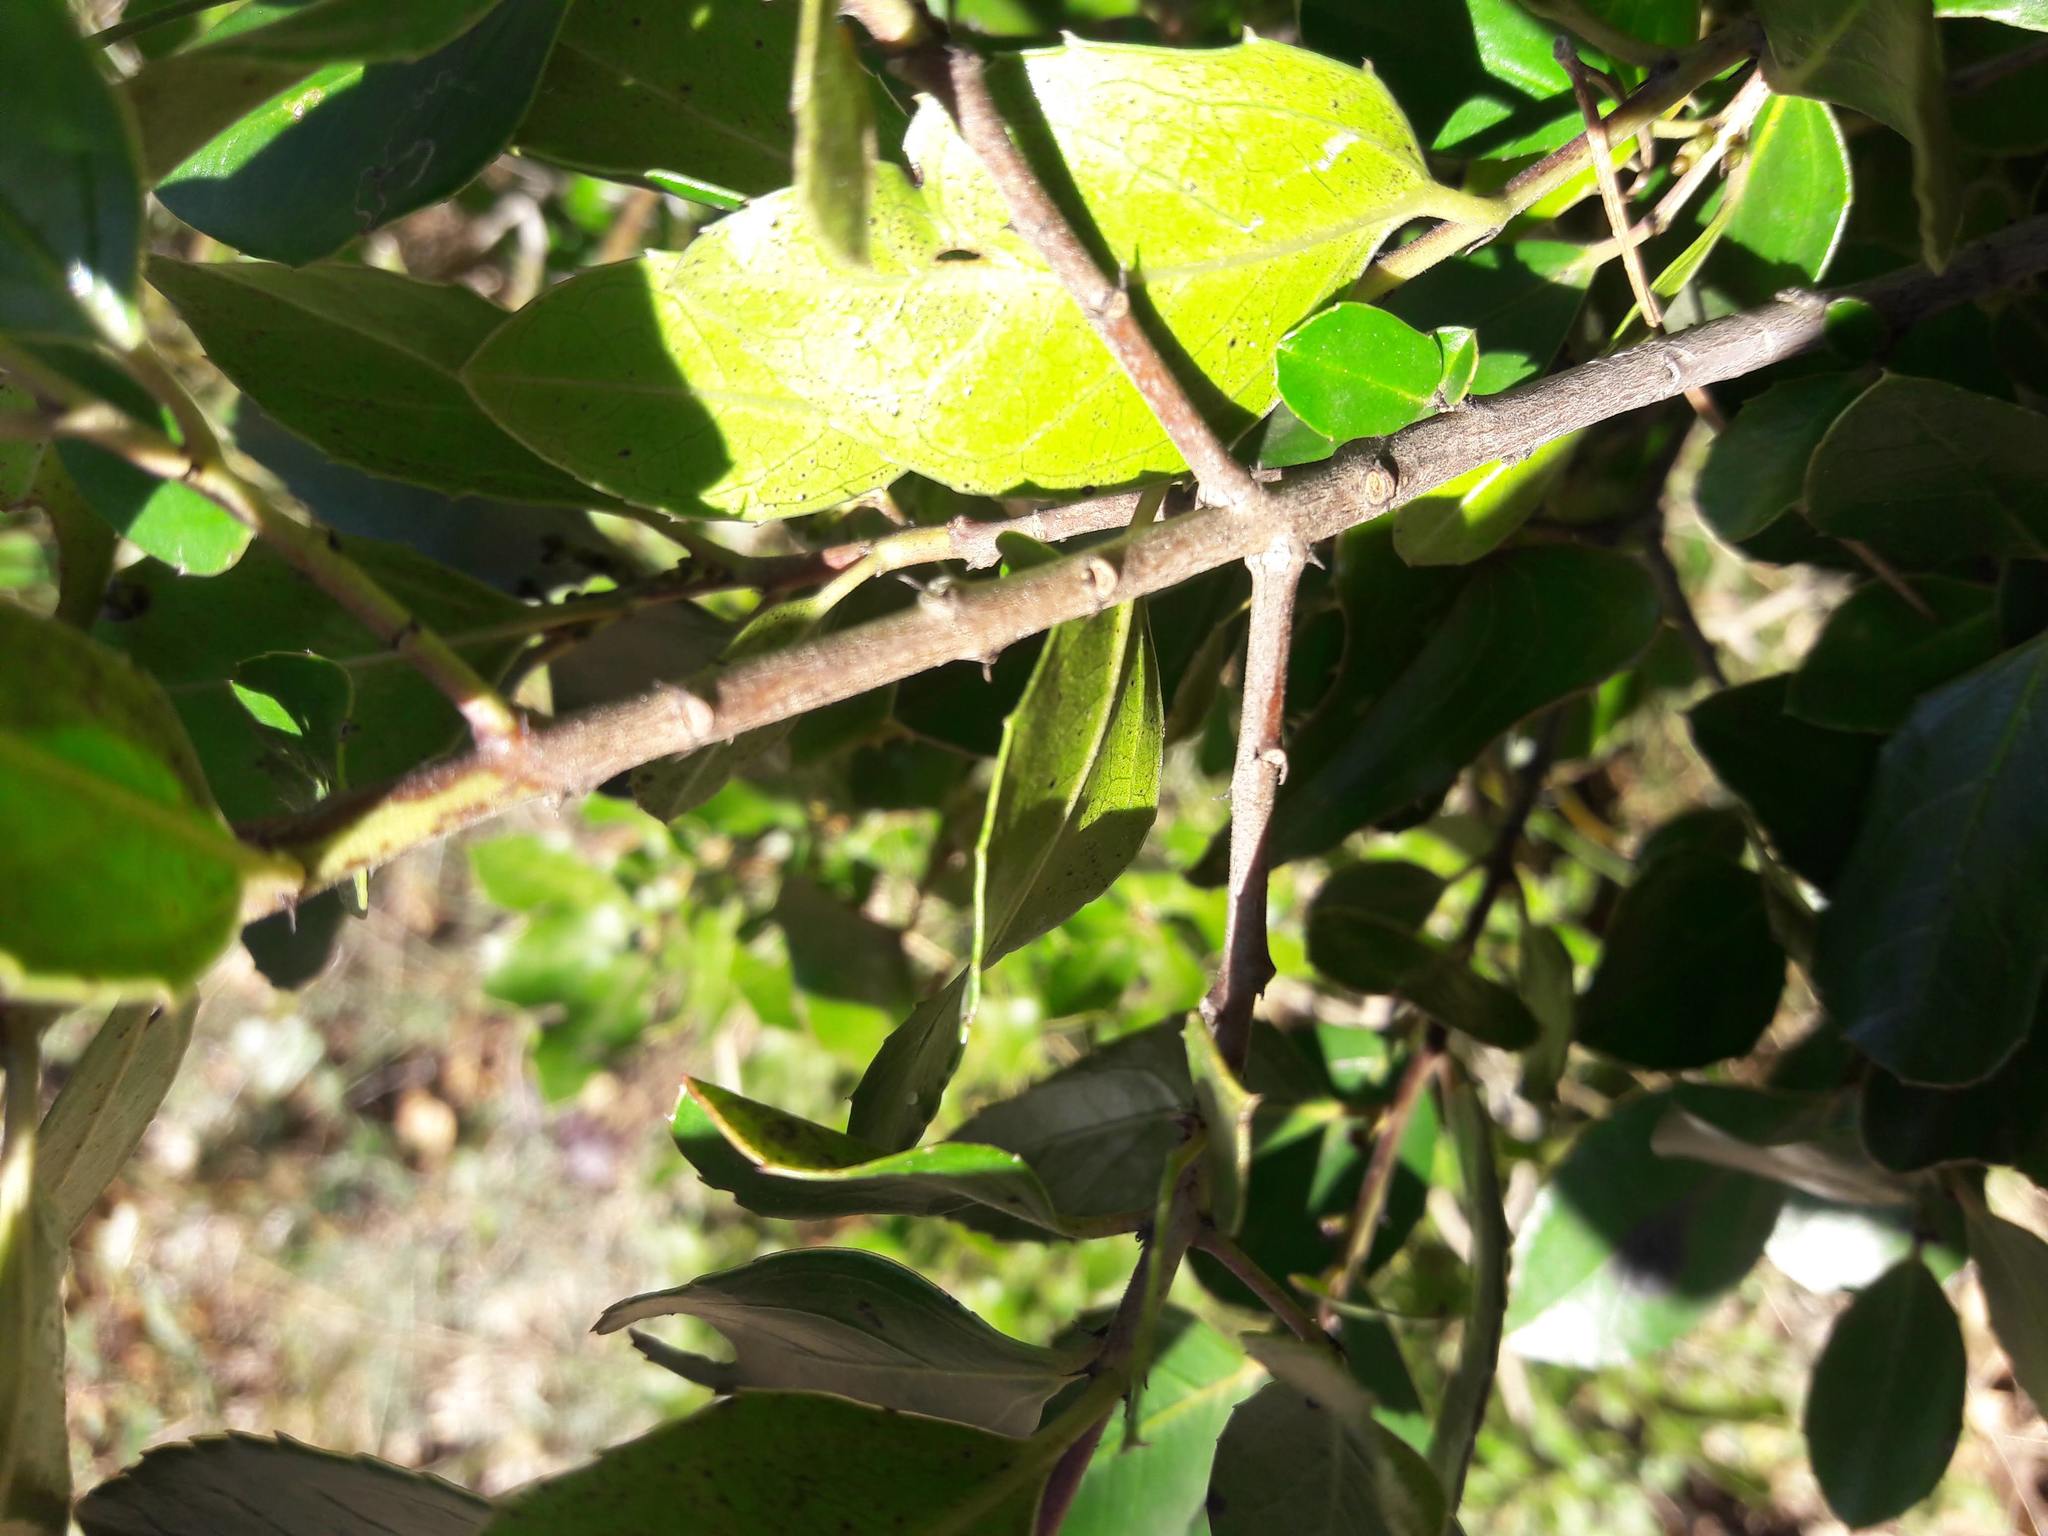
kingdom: Plantae
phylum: Tracheophyta
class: Magnoliopsida
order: Rosales
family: Rhamnaceae
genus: Rhamnus
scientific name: Rhamnus alaternus
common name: Mediterranean buckthorn
